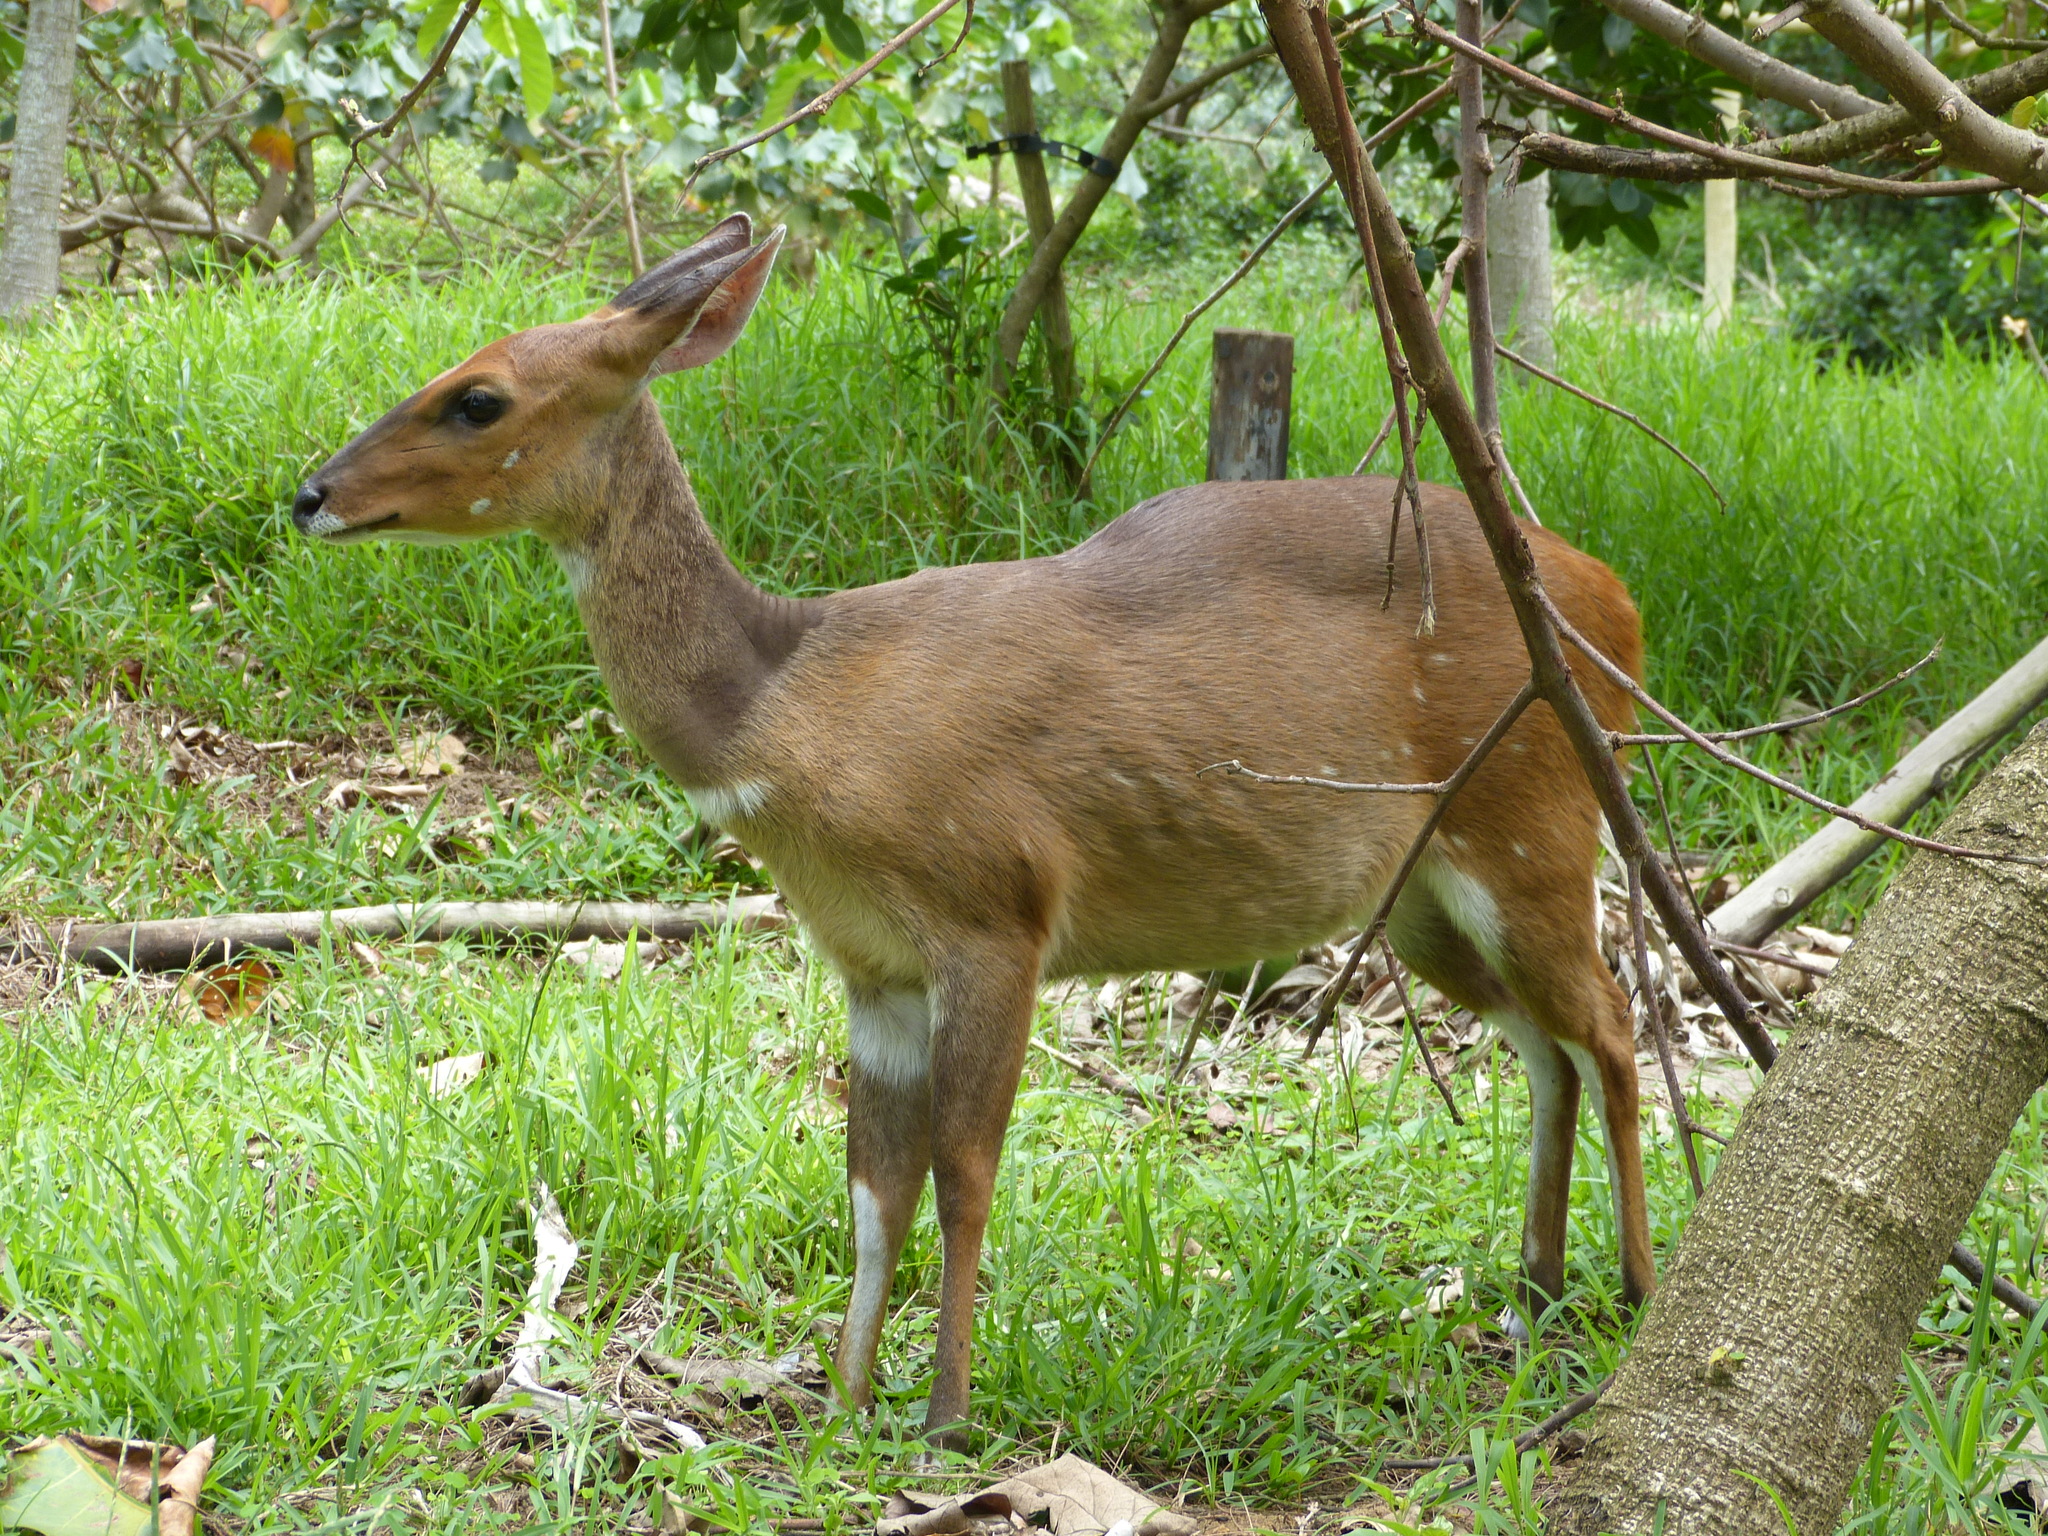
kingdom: Animalia
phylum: Chordata
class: Mammalia
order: Artiodactyla
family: Bovidae
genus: Tragelaphus
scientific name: Tragelaphus scriptus
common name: Bushbuck
